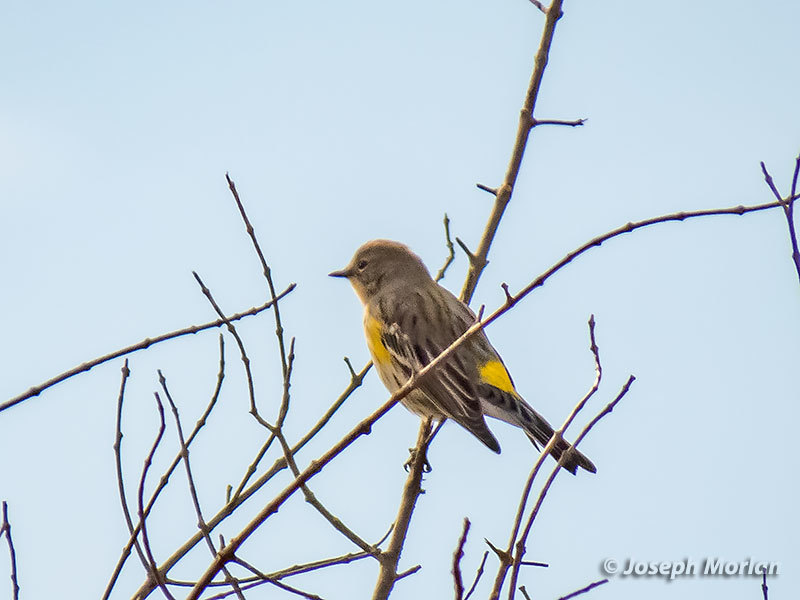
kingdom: Animalia
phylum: Chordata
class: Aves
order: Passeriformes
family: Parulidae
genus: Setophaga
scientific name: Setophaga coronata
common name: Myrtle warbler
